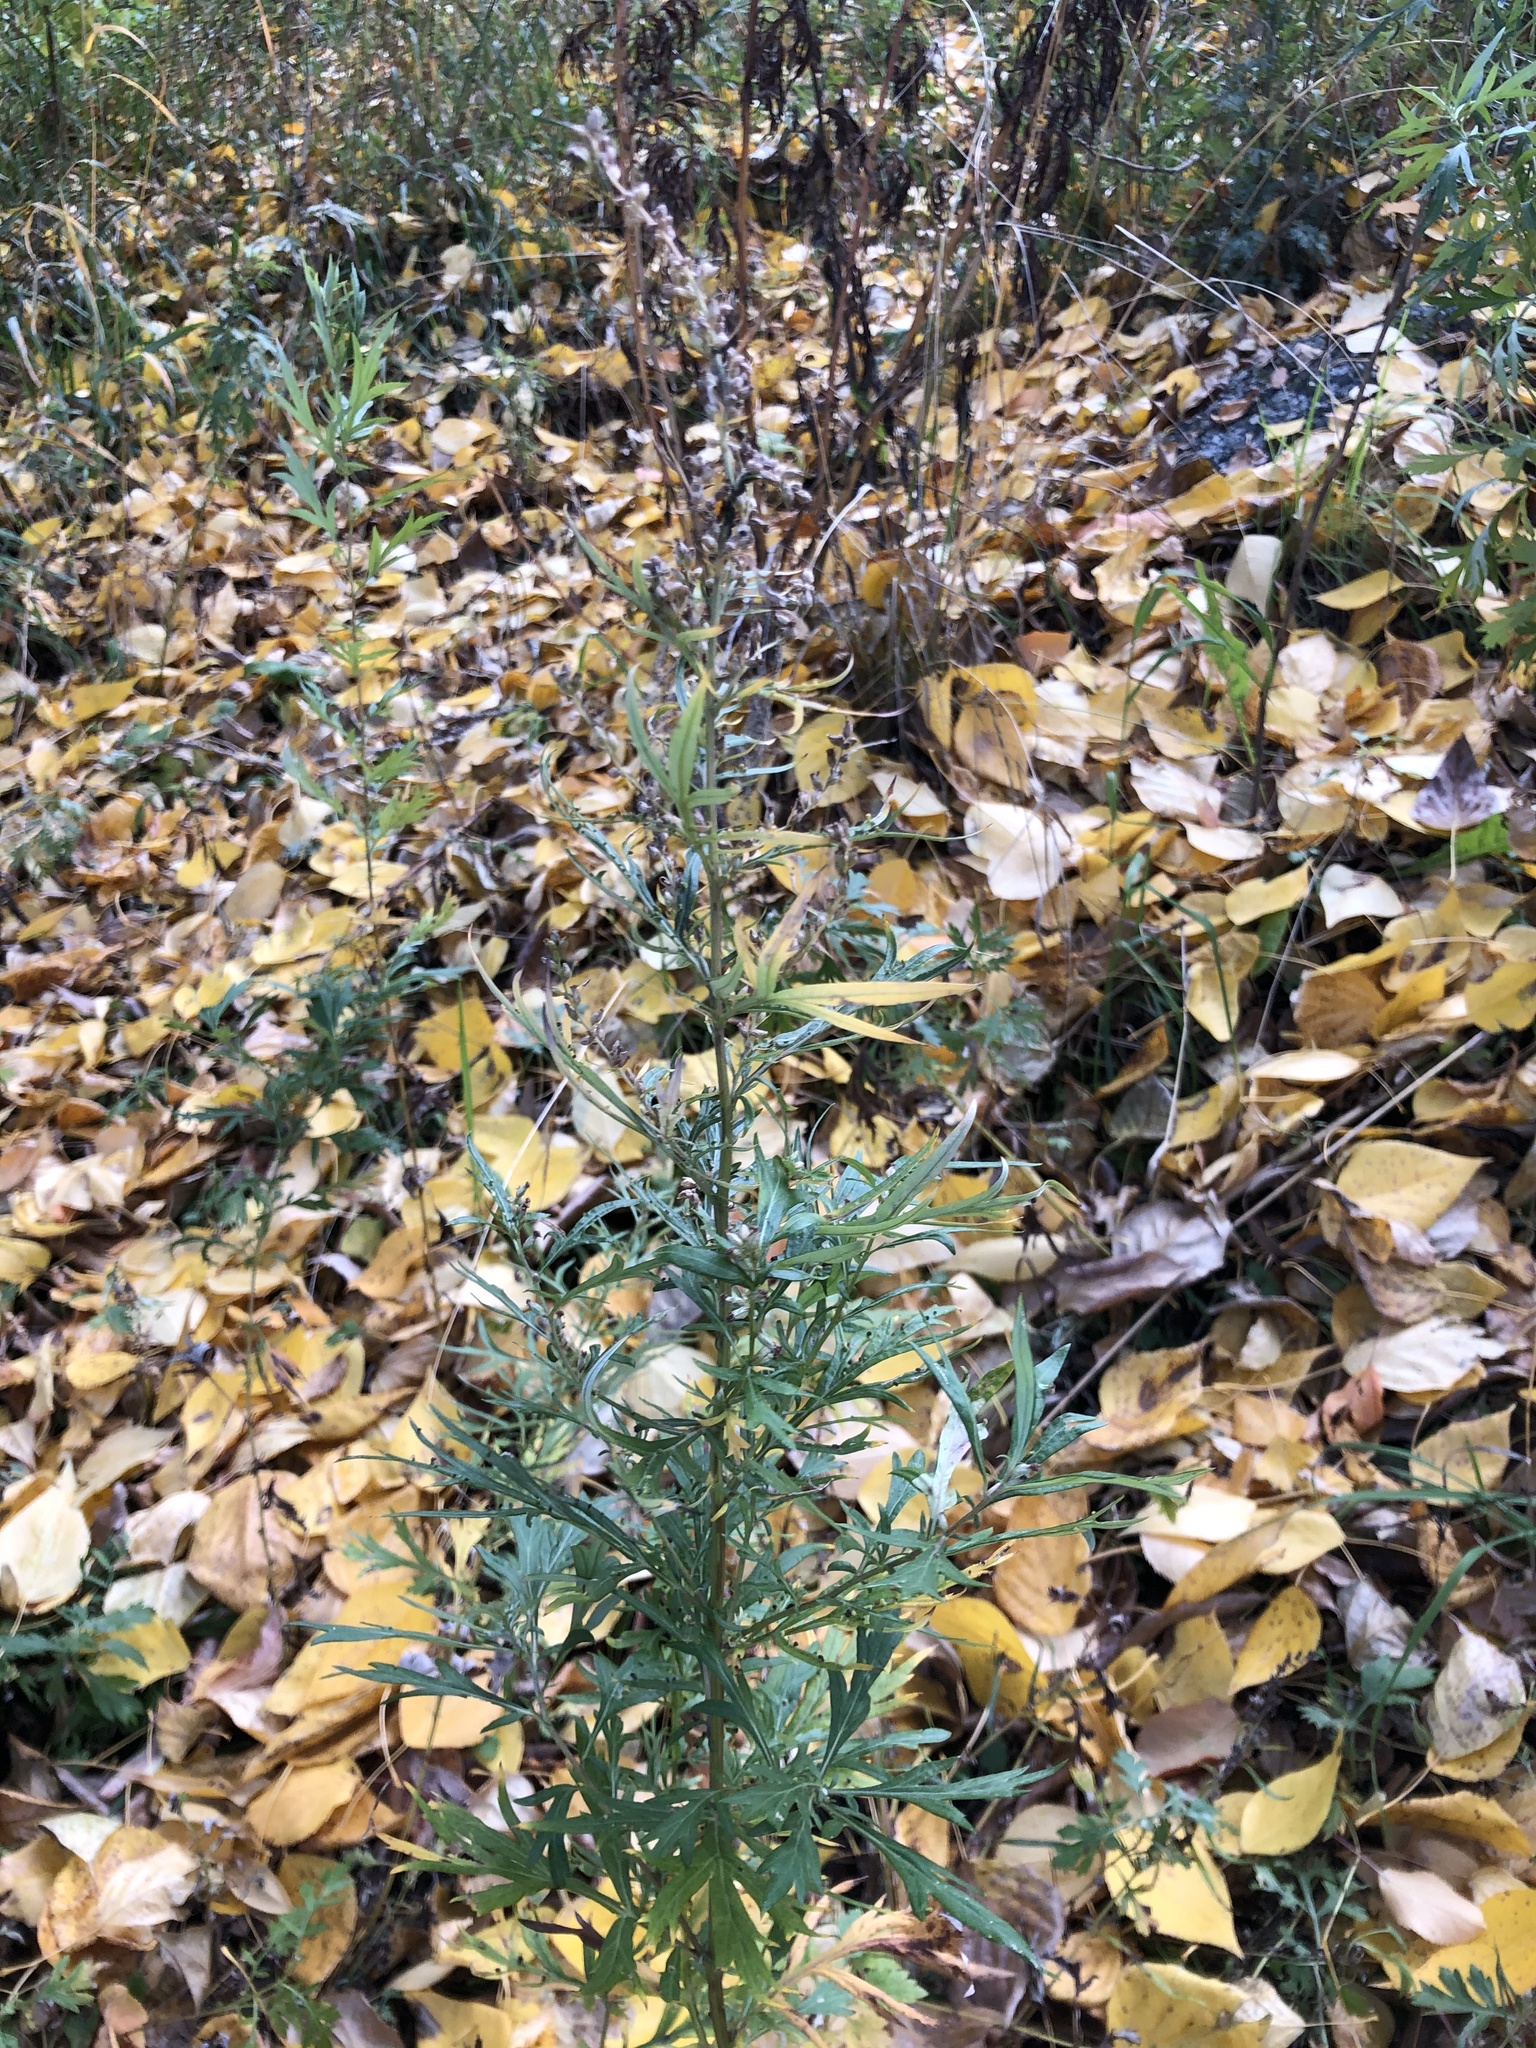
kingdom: Plantae
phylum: Tracheophyta
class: Magnoliopsida
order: Asterales
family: Asteraceae
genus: Artemisia
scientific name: Artemisia vulgaris
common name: Mugwort
